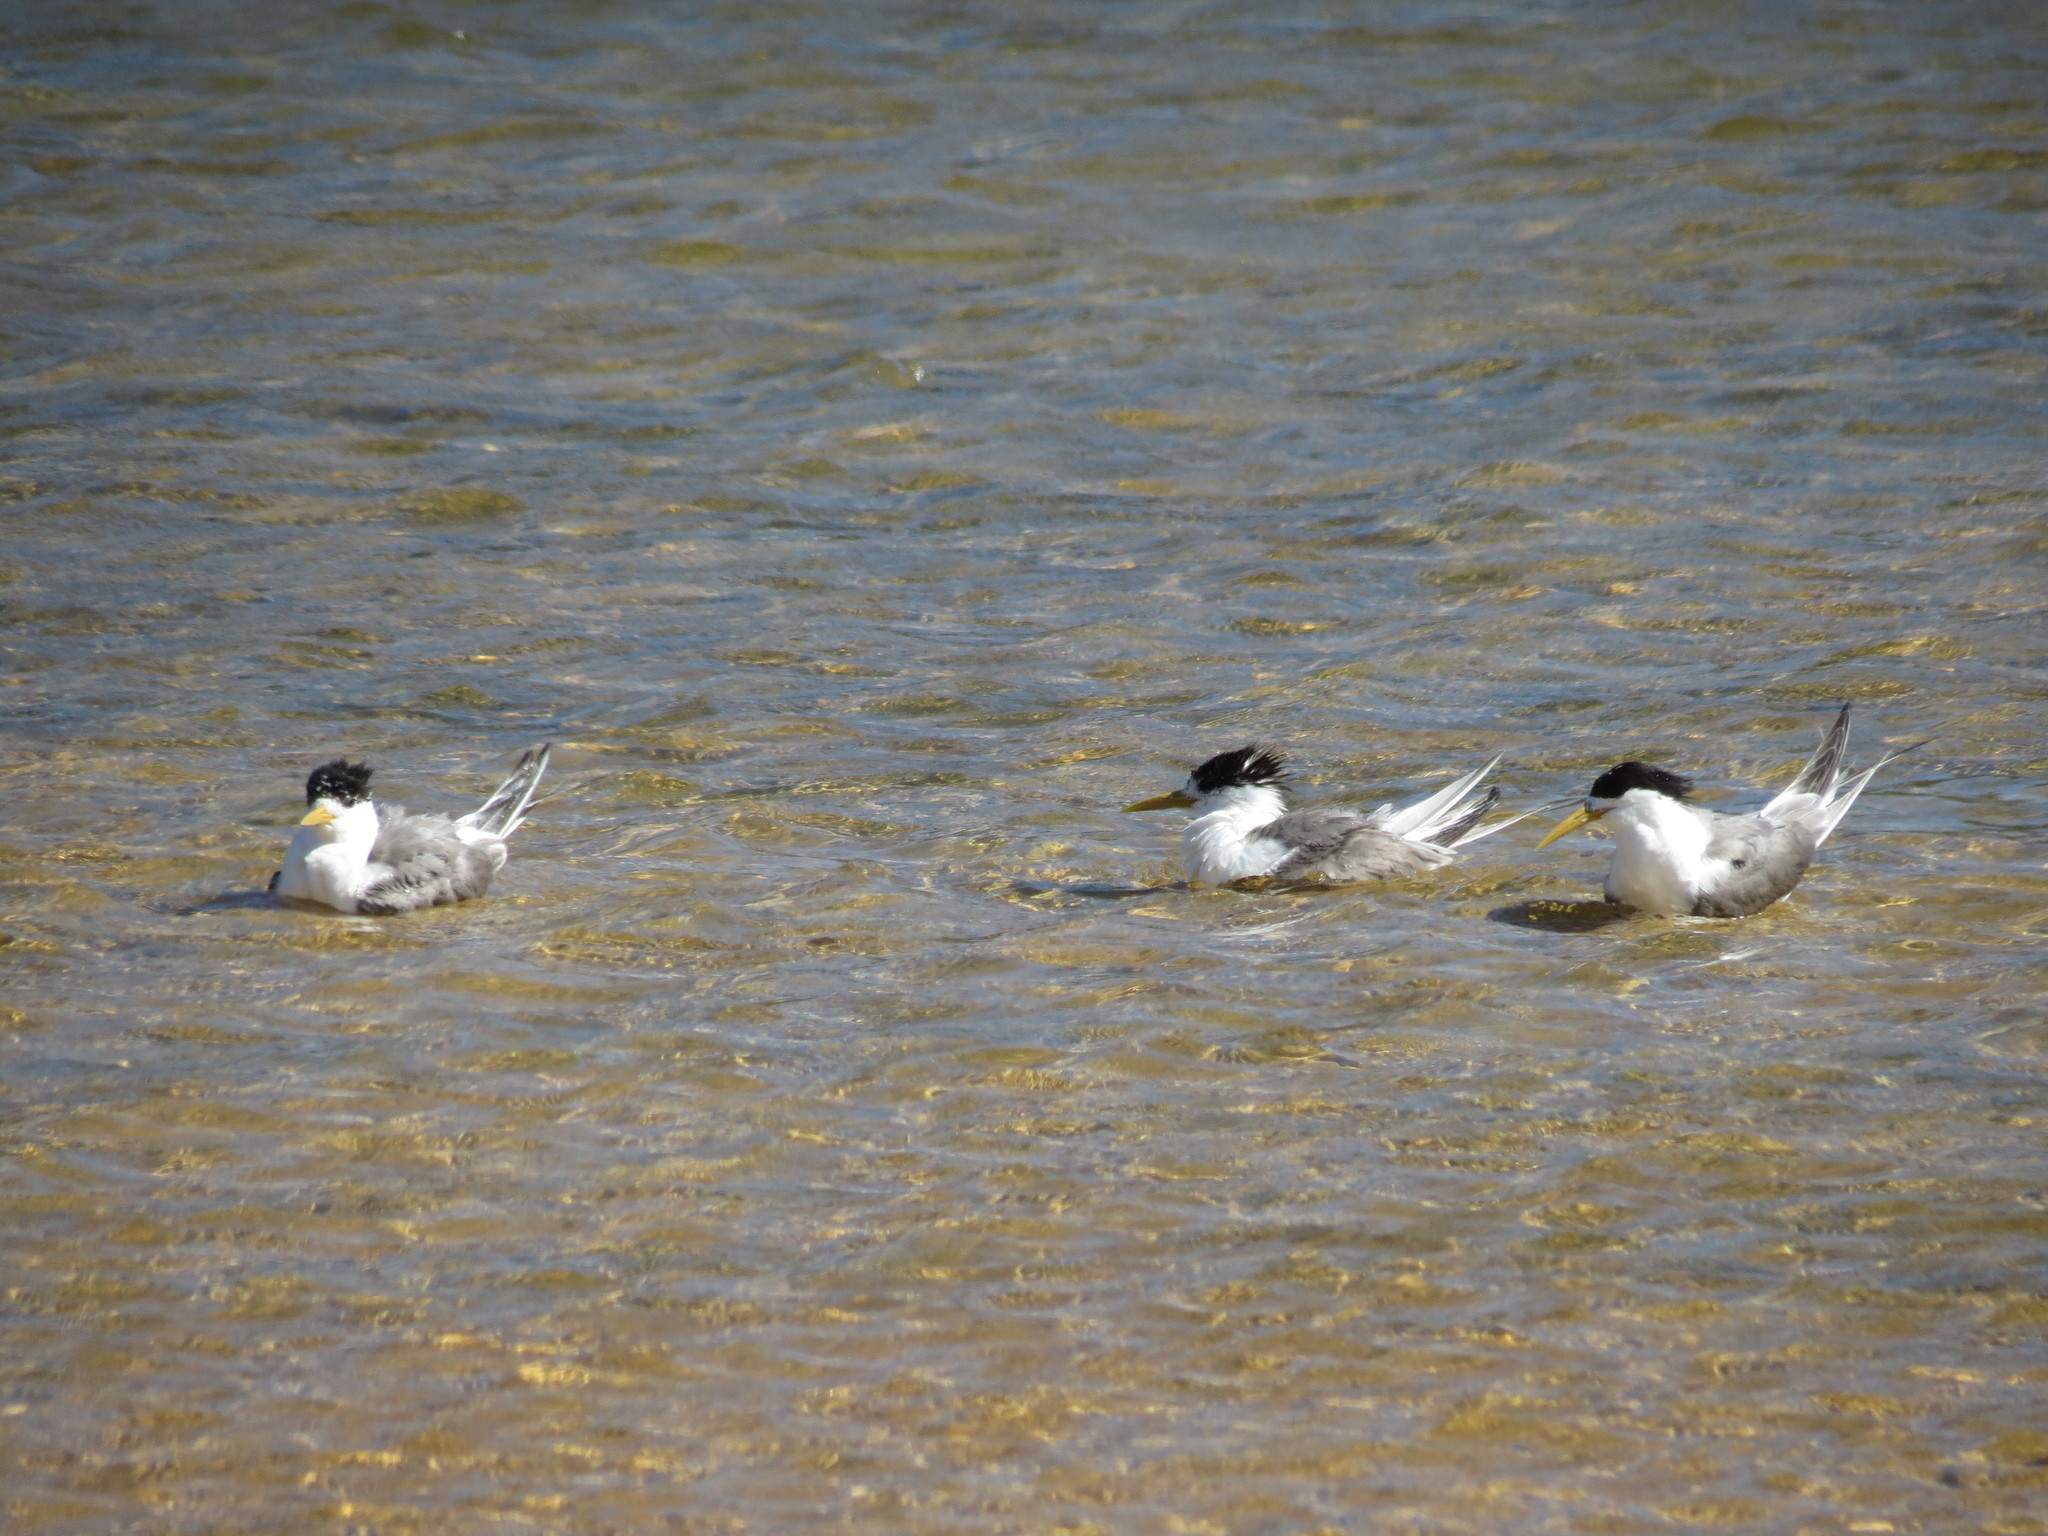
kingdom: Animalia
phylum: Chordata
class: Aves
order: Charadriiformes
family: Laridae
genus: Thalasseus
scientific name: Thalasseus bergii
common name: Greater crested tern
